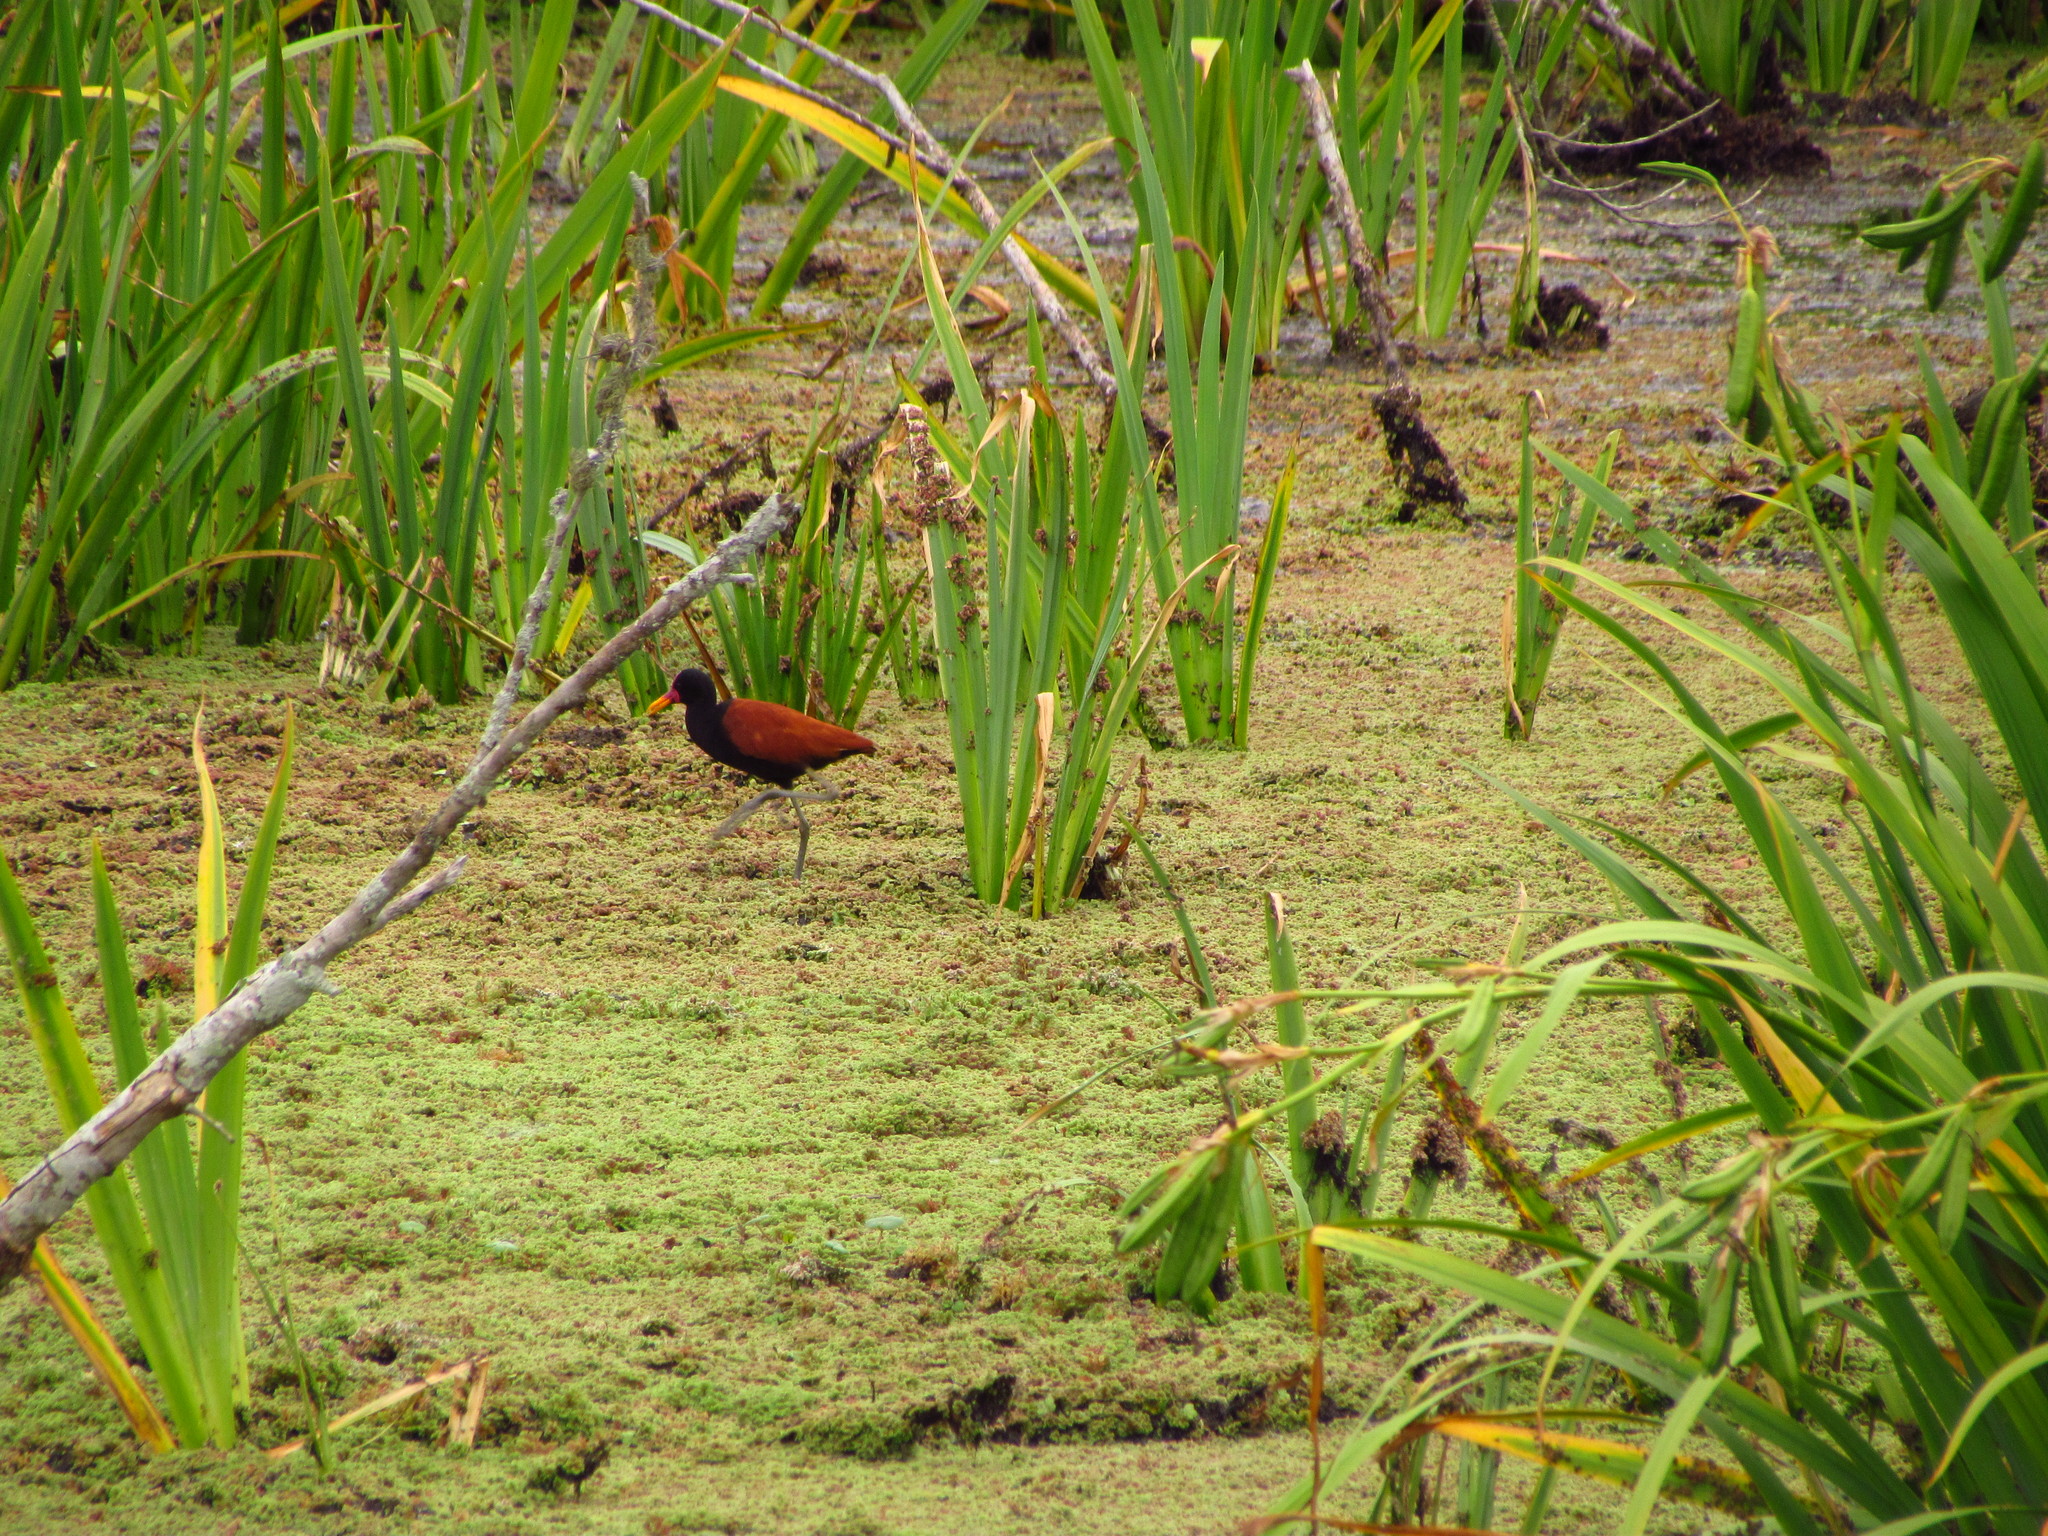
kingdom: Animalia
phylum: Chordata
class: Aves
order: Charadriiformes
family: Jacanidae
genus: Jacana
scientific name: Jacana jacana
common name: Wattled jacana
